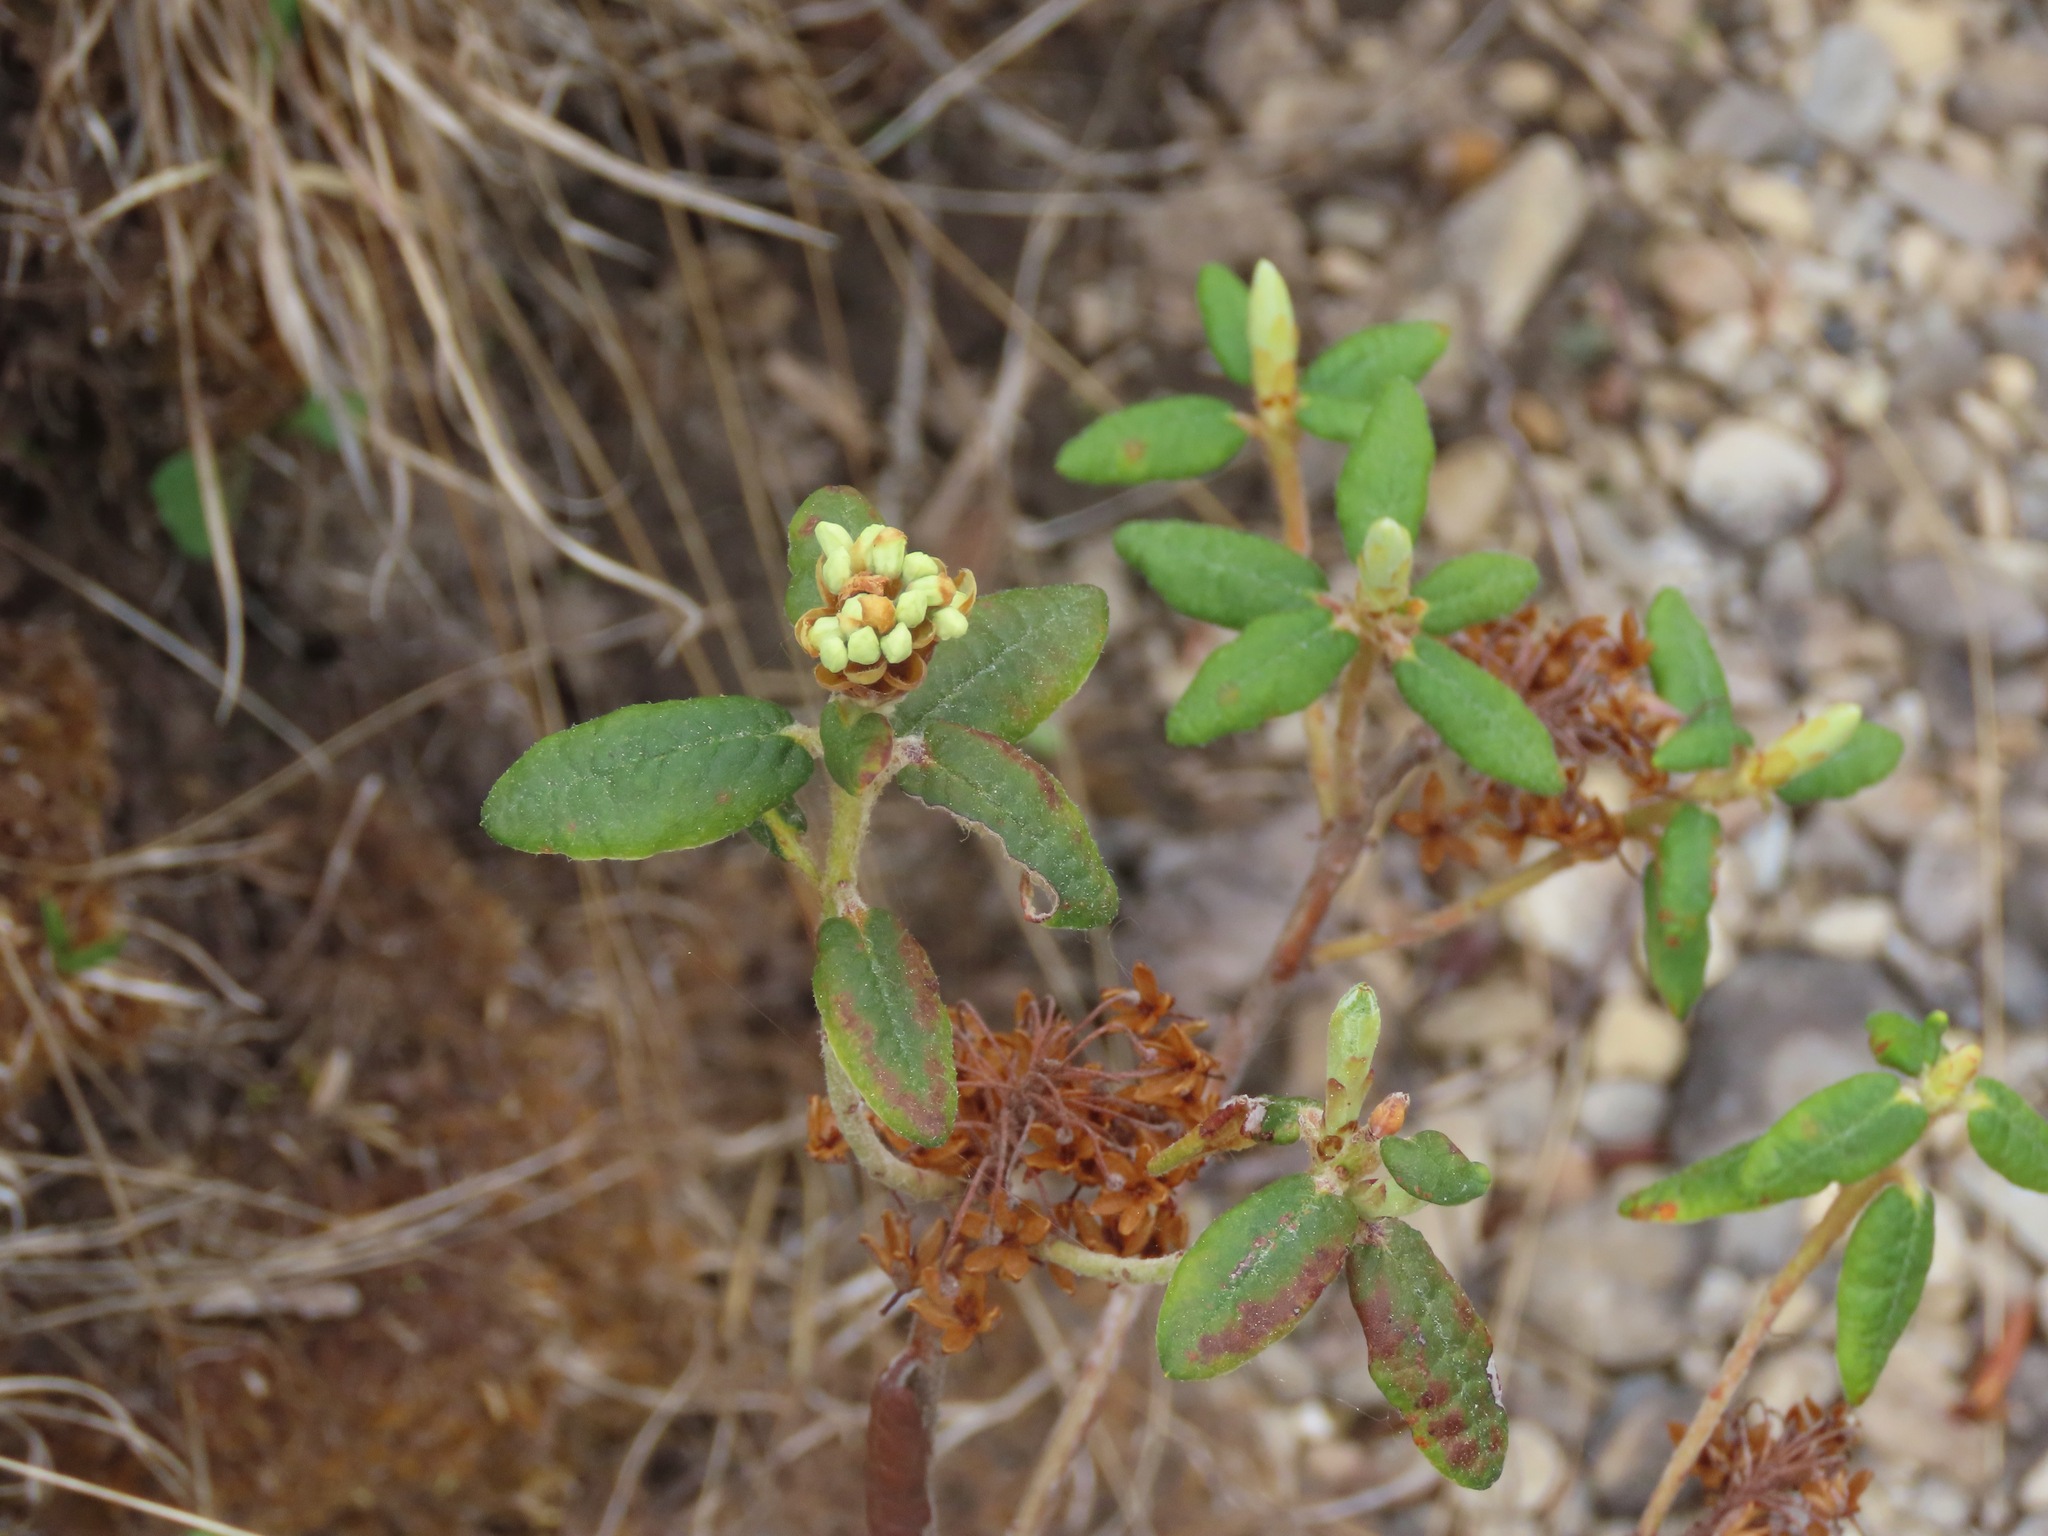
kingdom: Plantae
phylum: Tracheophyta
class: Magnoliopsida
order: Ericales
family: Ericaceae
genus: Rhododendron
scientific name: Rhododendron groenlandicum
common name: Bog labrador tea
